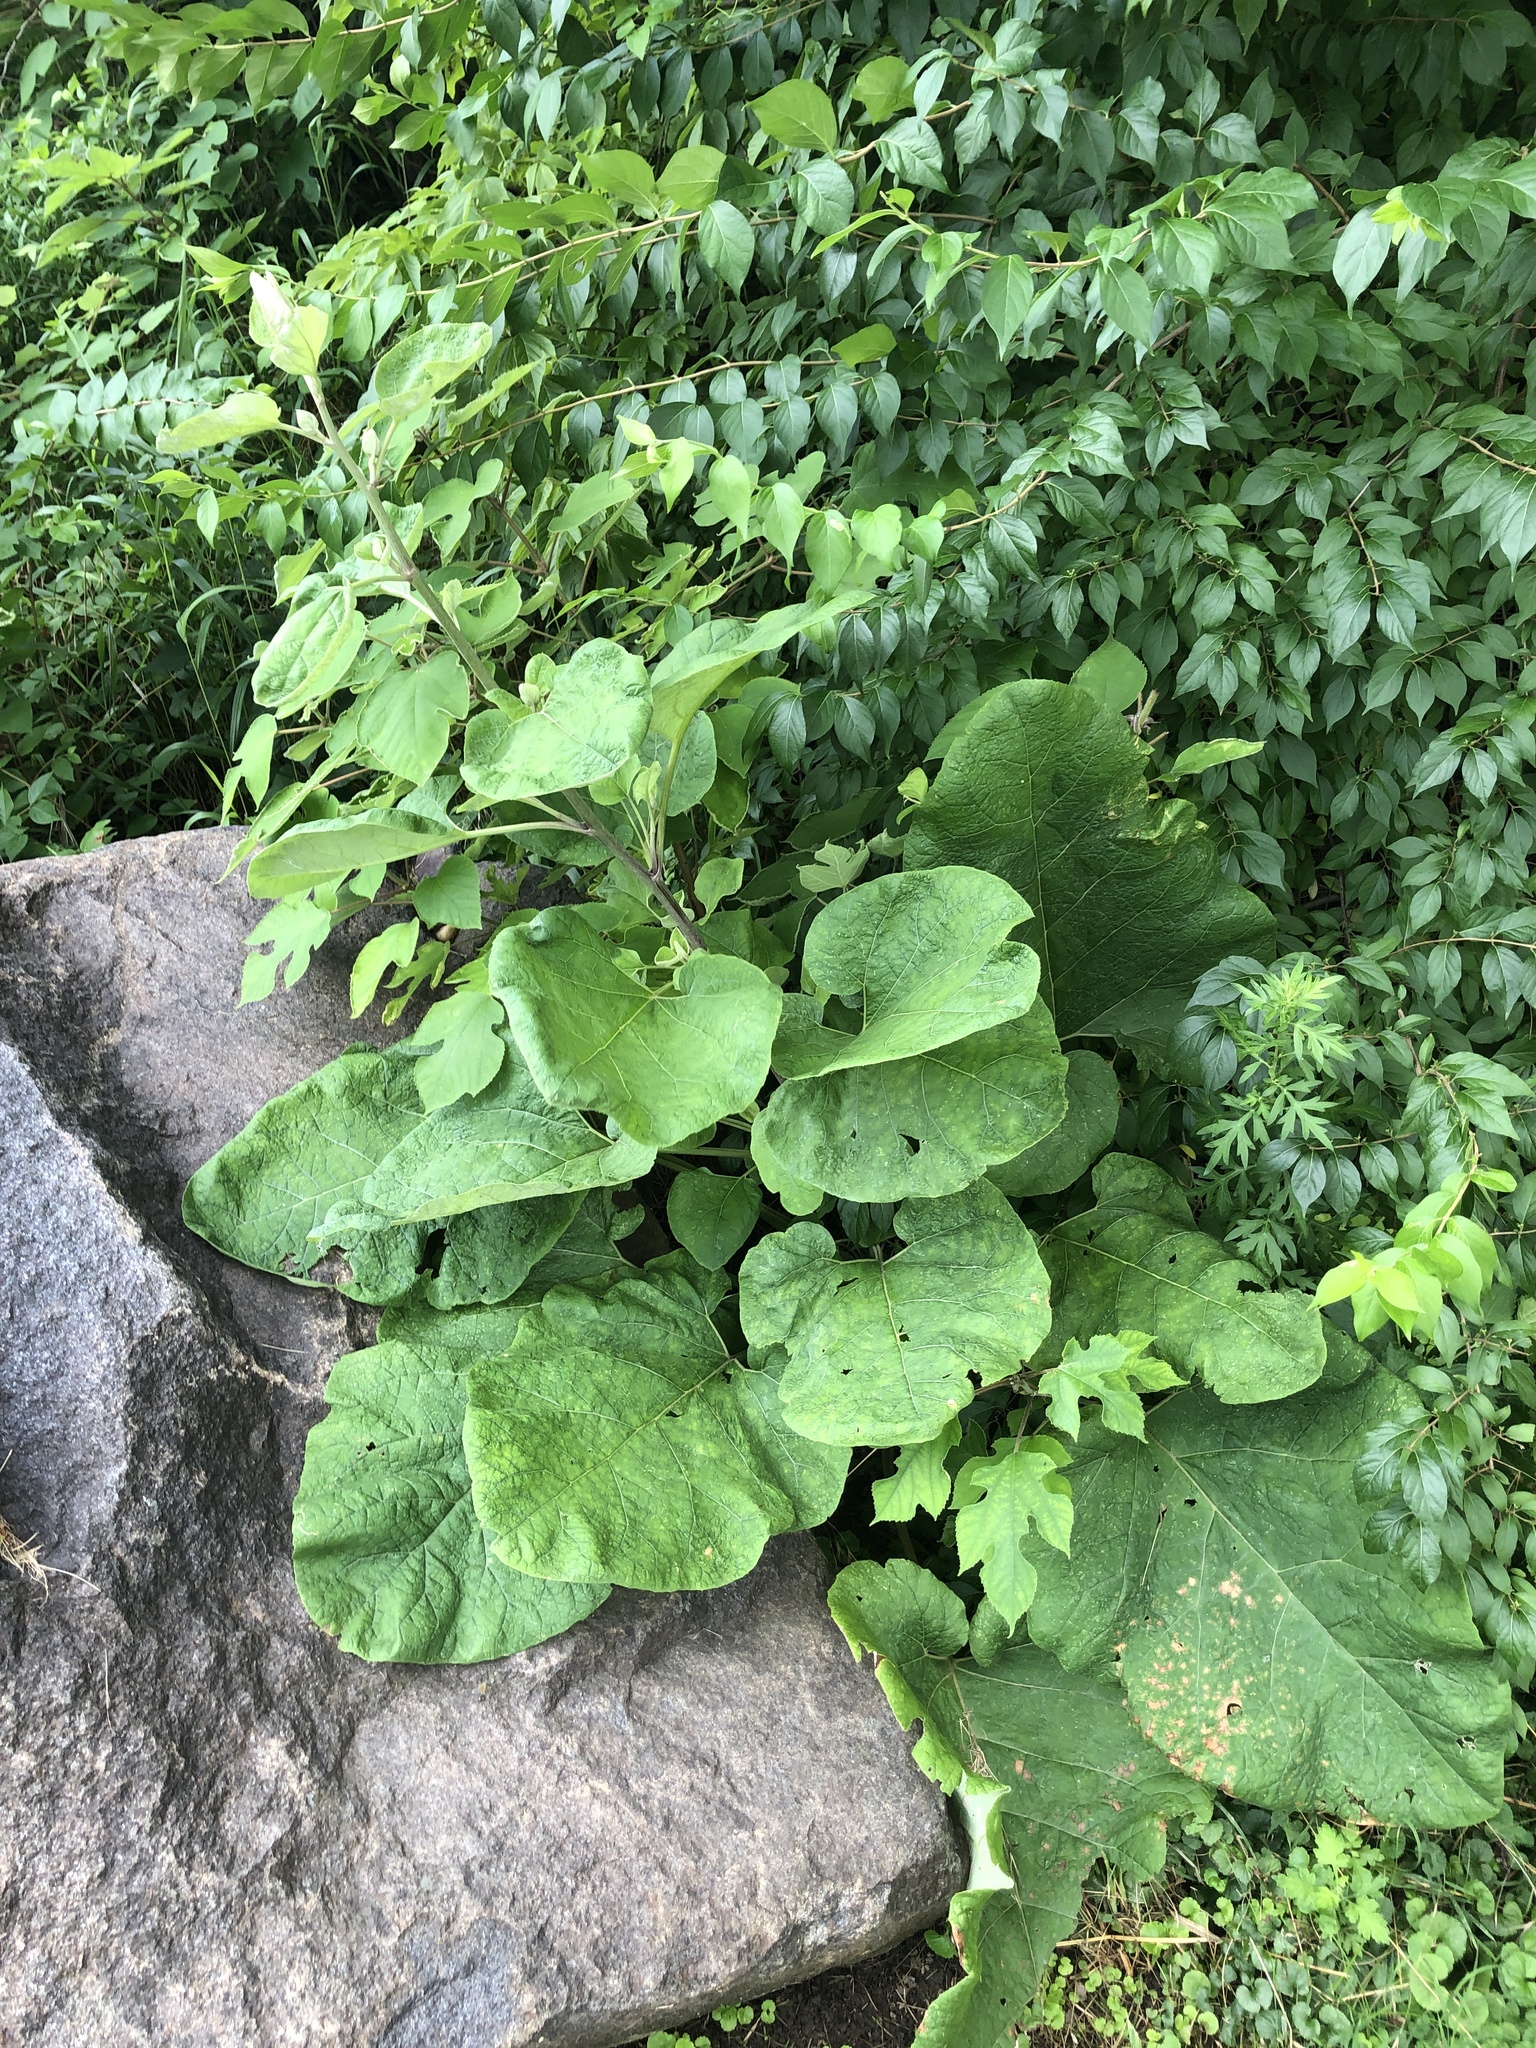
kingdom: Plantae
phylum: Tracheophyta
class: Magnoliopsida
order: Asterales
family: Asteraceae
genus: Arctium
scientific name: Arctium
